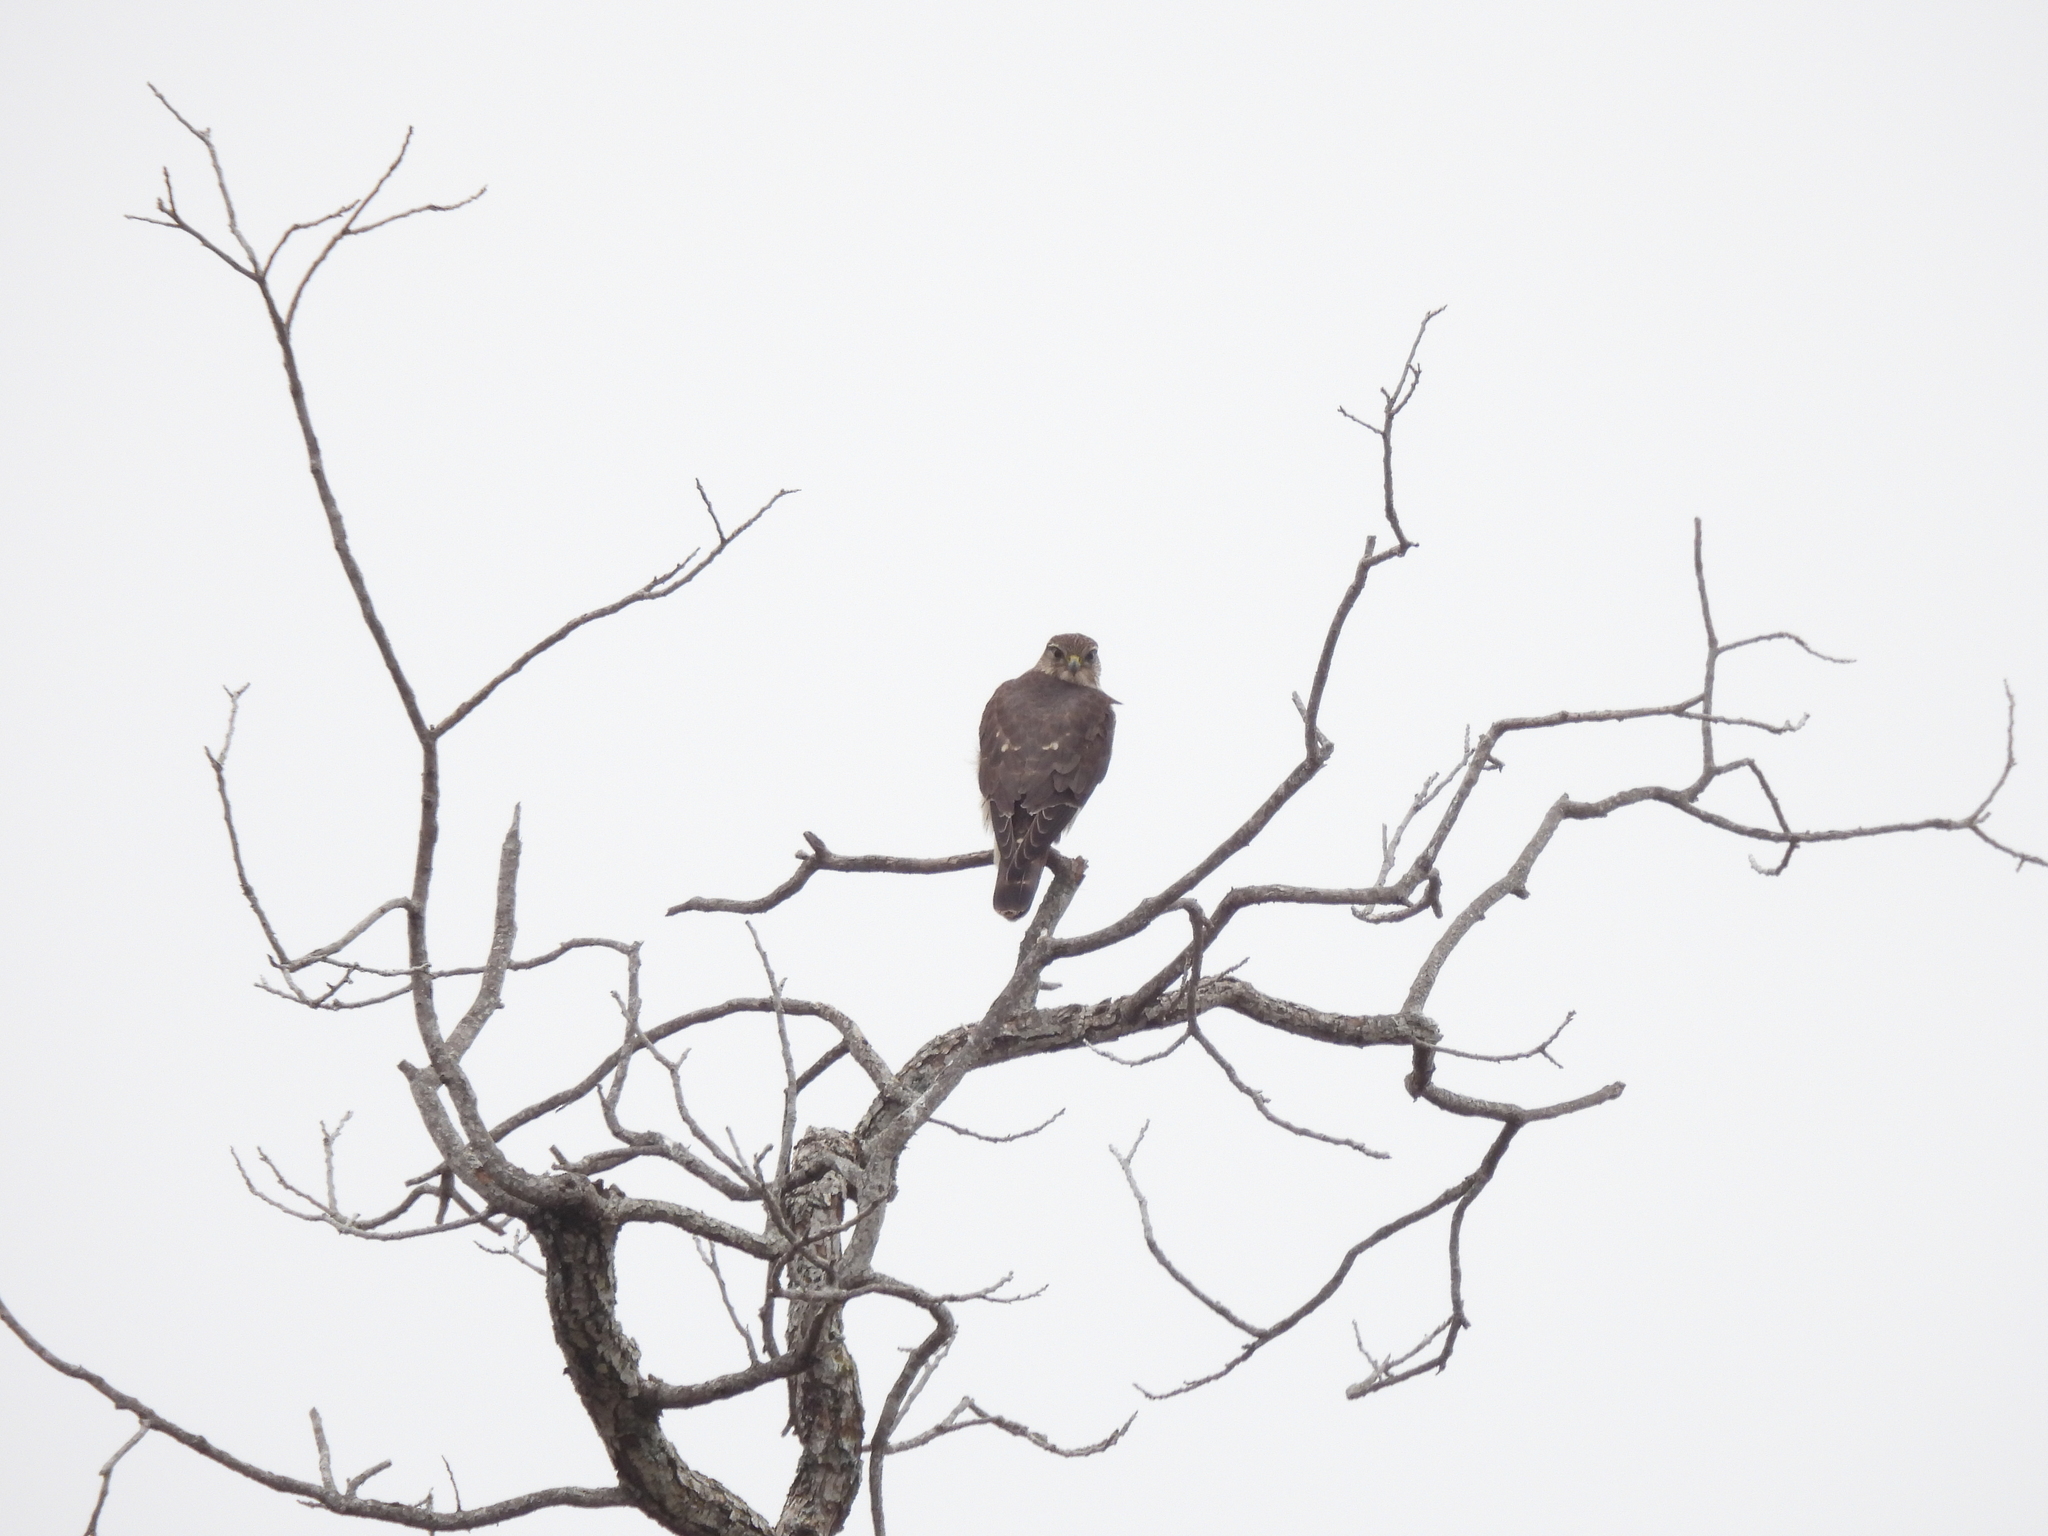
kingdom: Animalia
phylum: Chordata
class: Aves
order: Falconiformes
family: Falconidae
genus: Falco
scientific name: Falco columbarius
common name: Merlin
